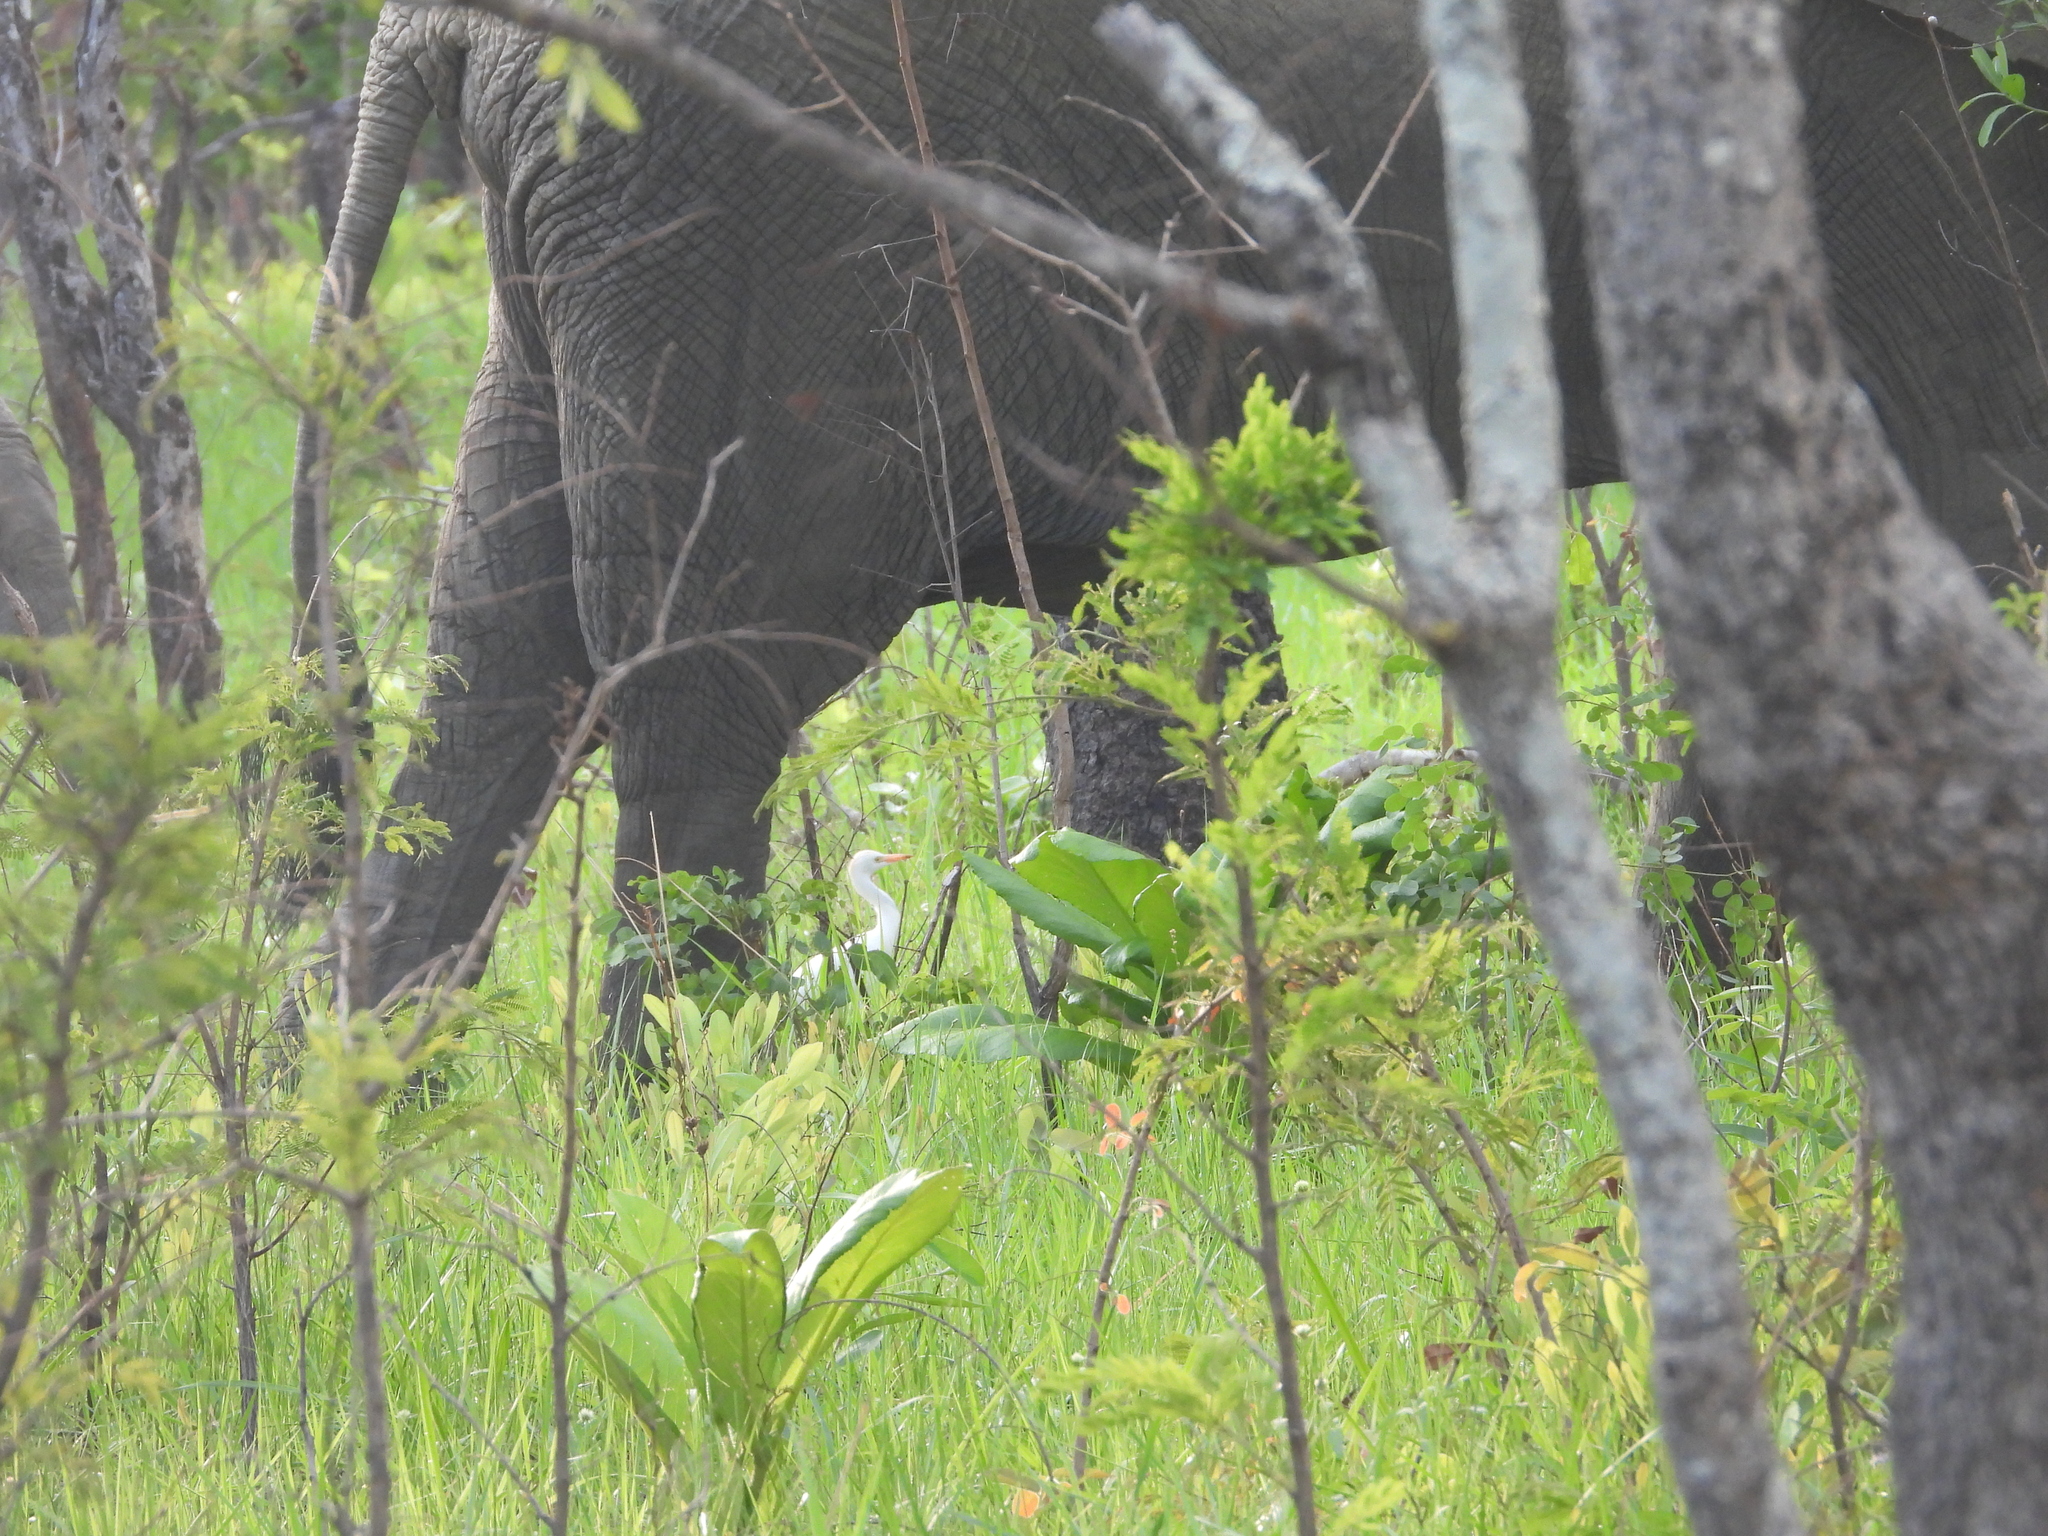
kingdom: Animalia
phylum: Chordata
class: Aves
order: Pelecaniformes
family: Ardeidae
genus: Bubulcus
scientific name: Bubulcus ibis
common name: Cattle egret
